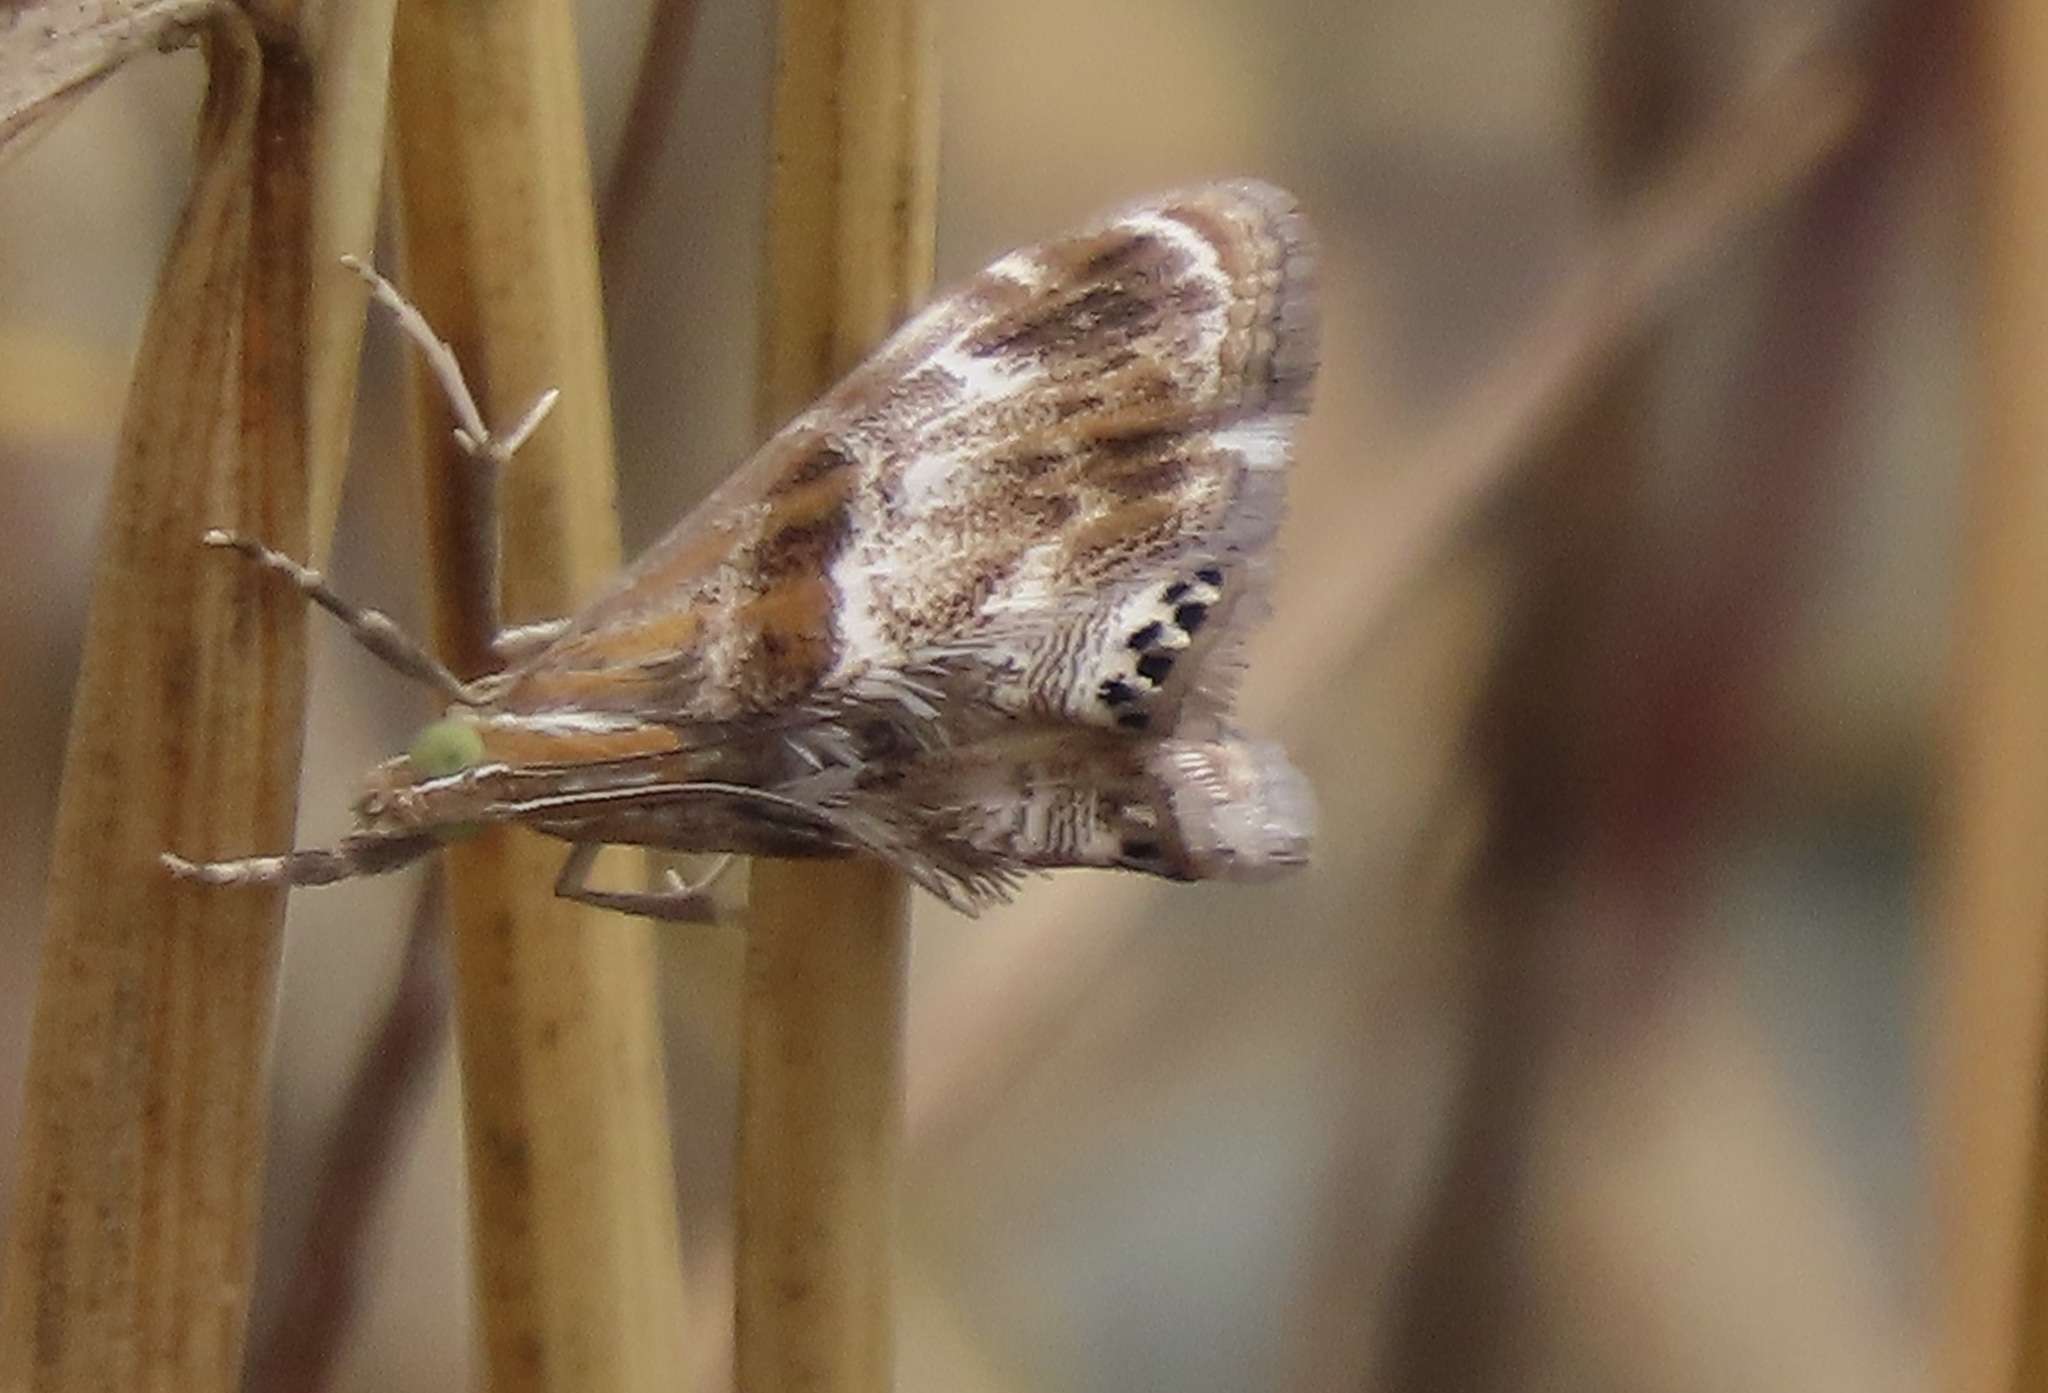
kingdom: Animalia
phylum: Arthropoda
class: Insecta
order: Lepidoptera
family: Crambidae
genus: Dicymolomia
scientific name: Dicymolomia metalliferalis
